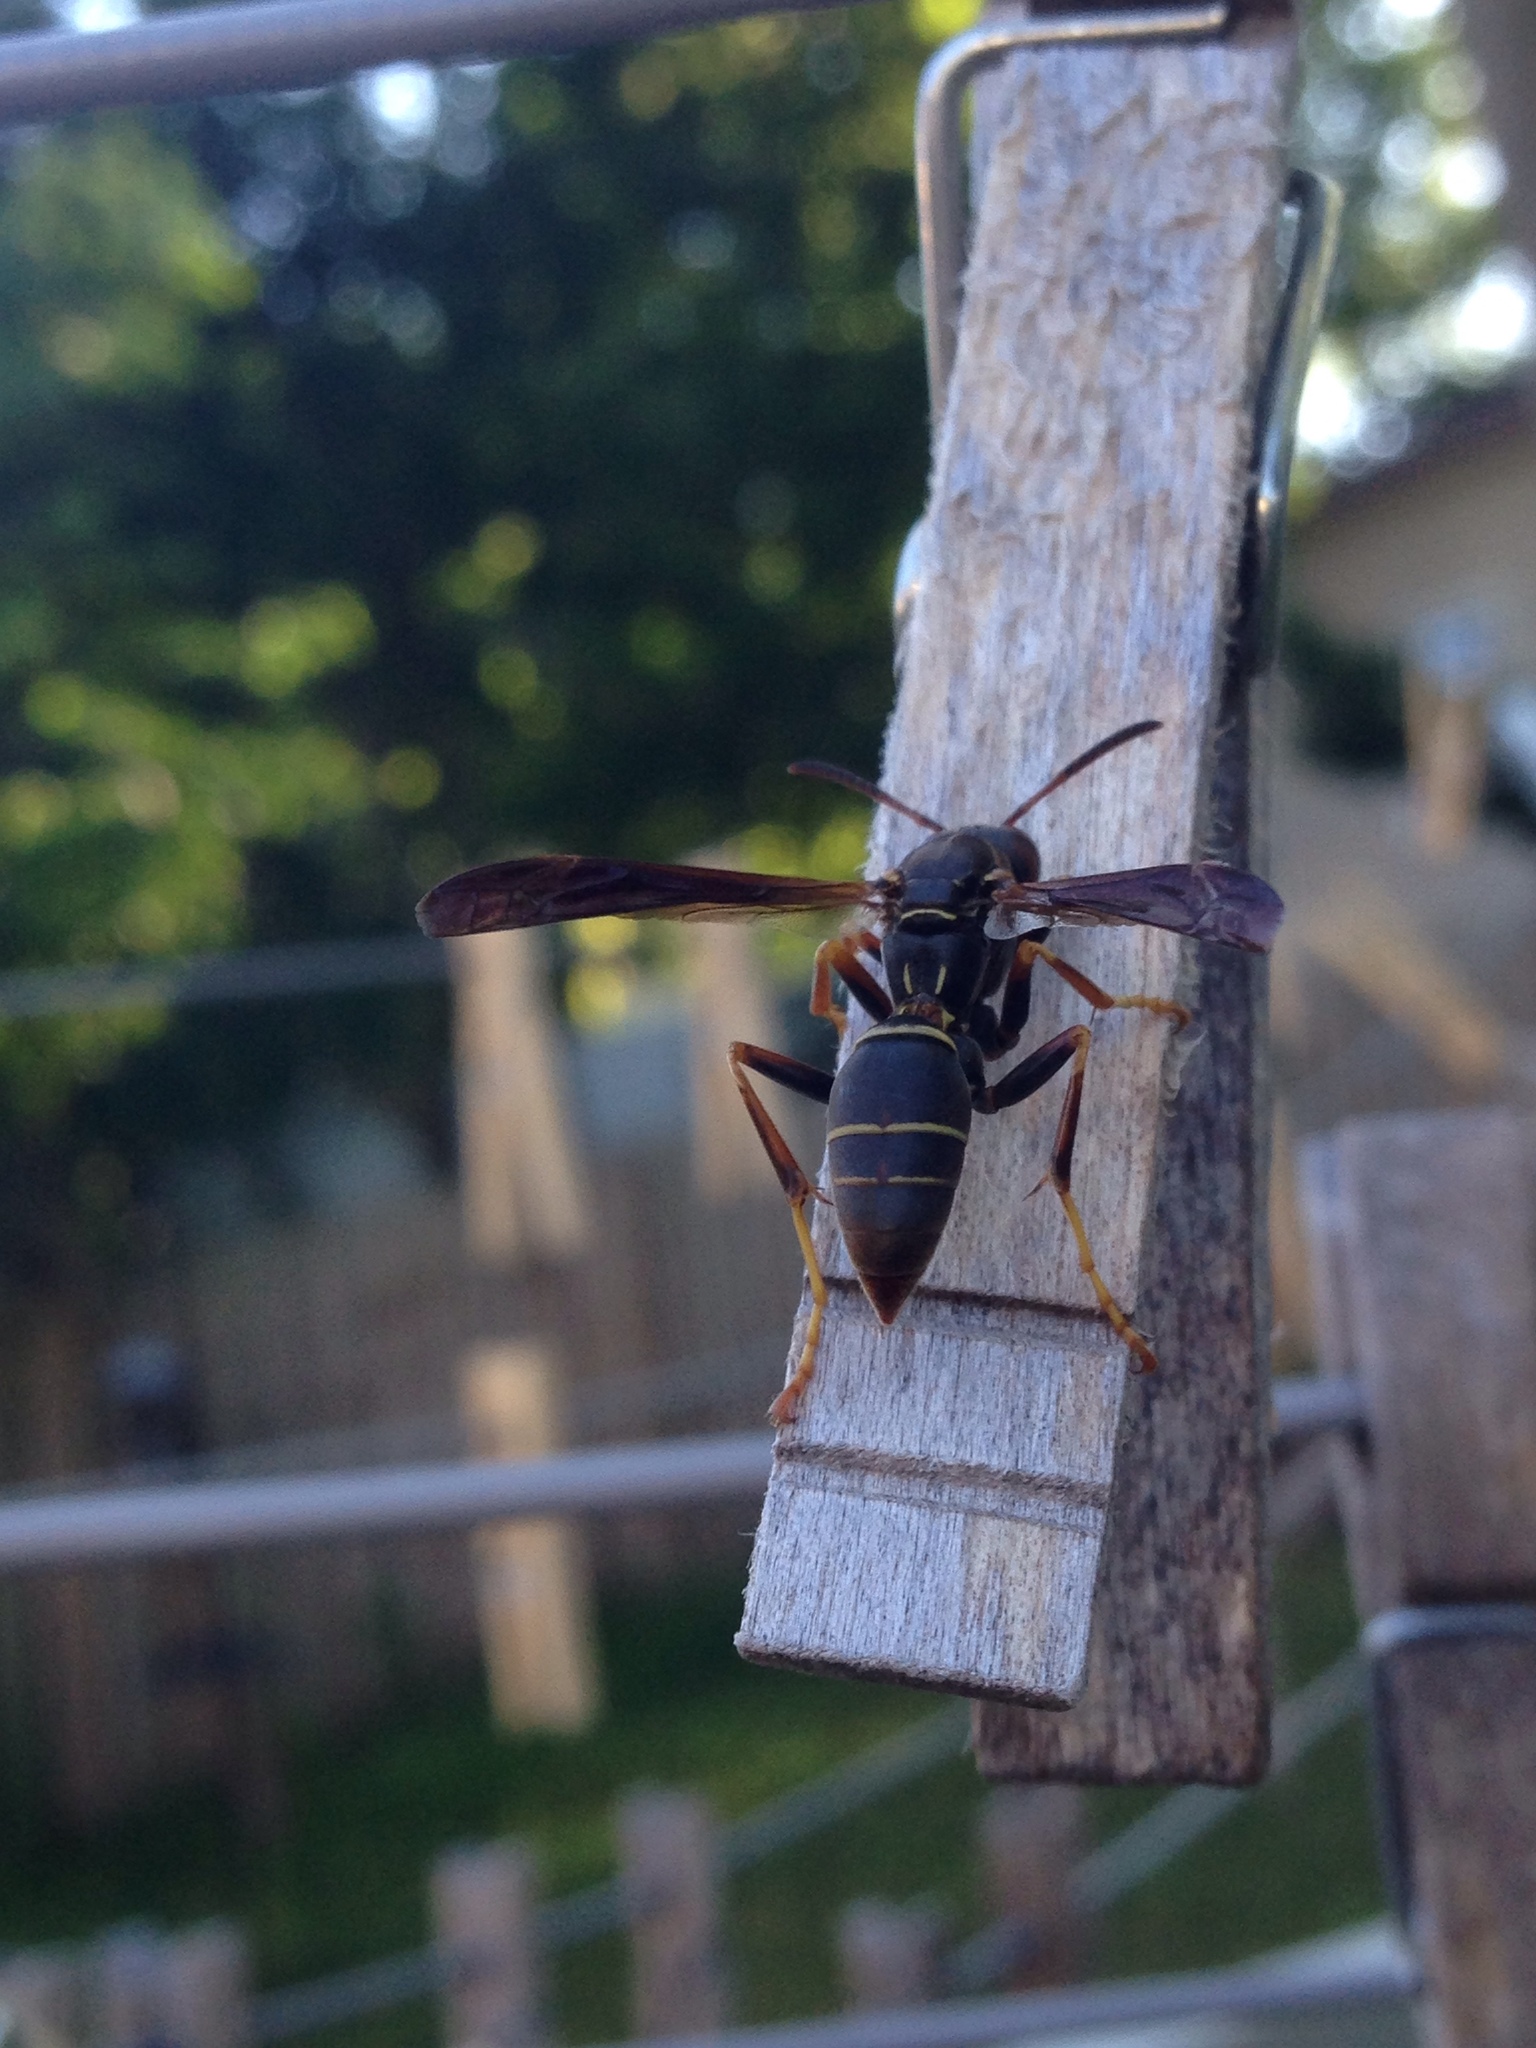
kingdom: Animalia
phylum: Arthropoda
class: Insecta
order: Hymenoptera
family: Eumenidae
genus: Polistes
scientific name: Polistes fuscatus
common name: Dark paper wasp
